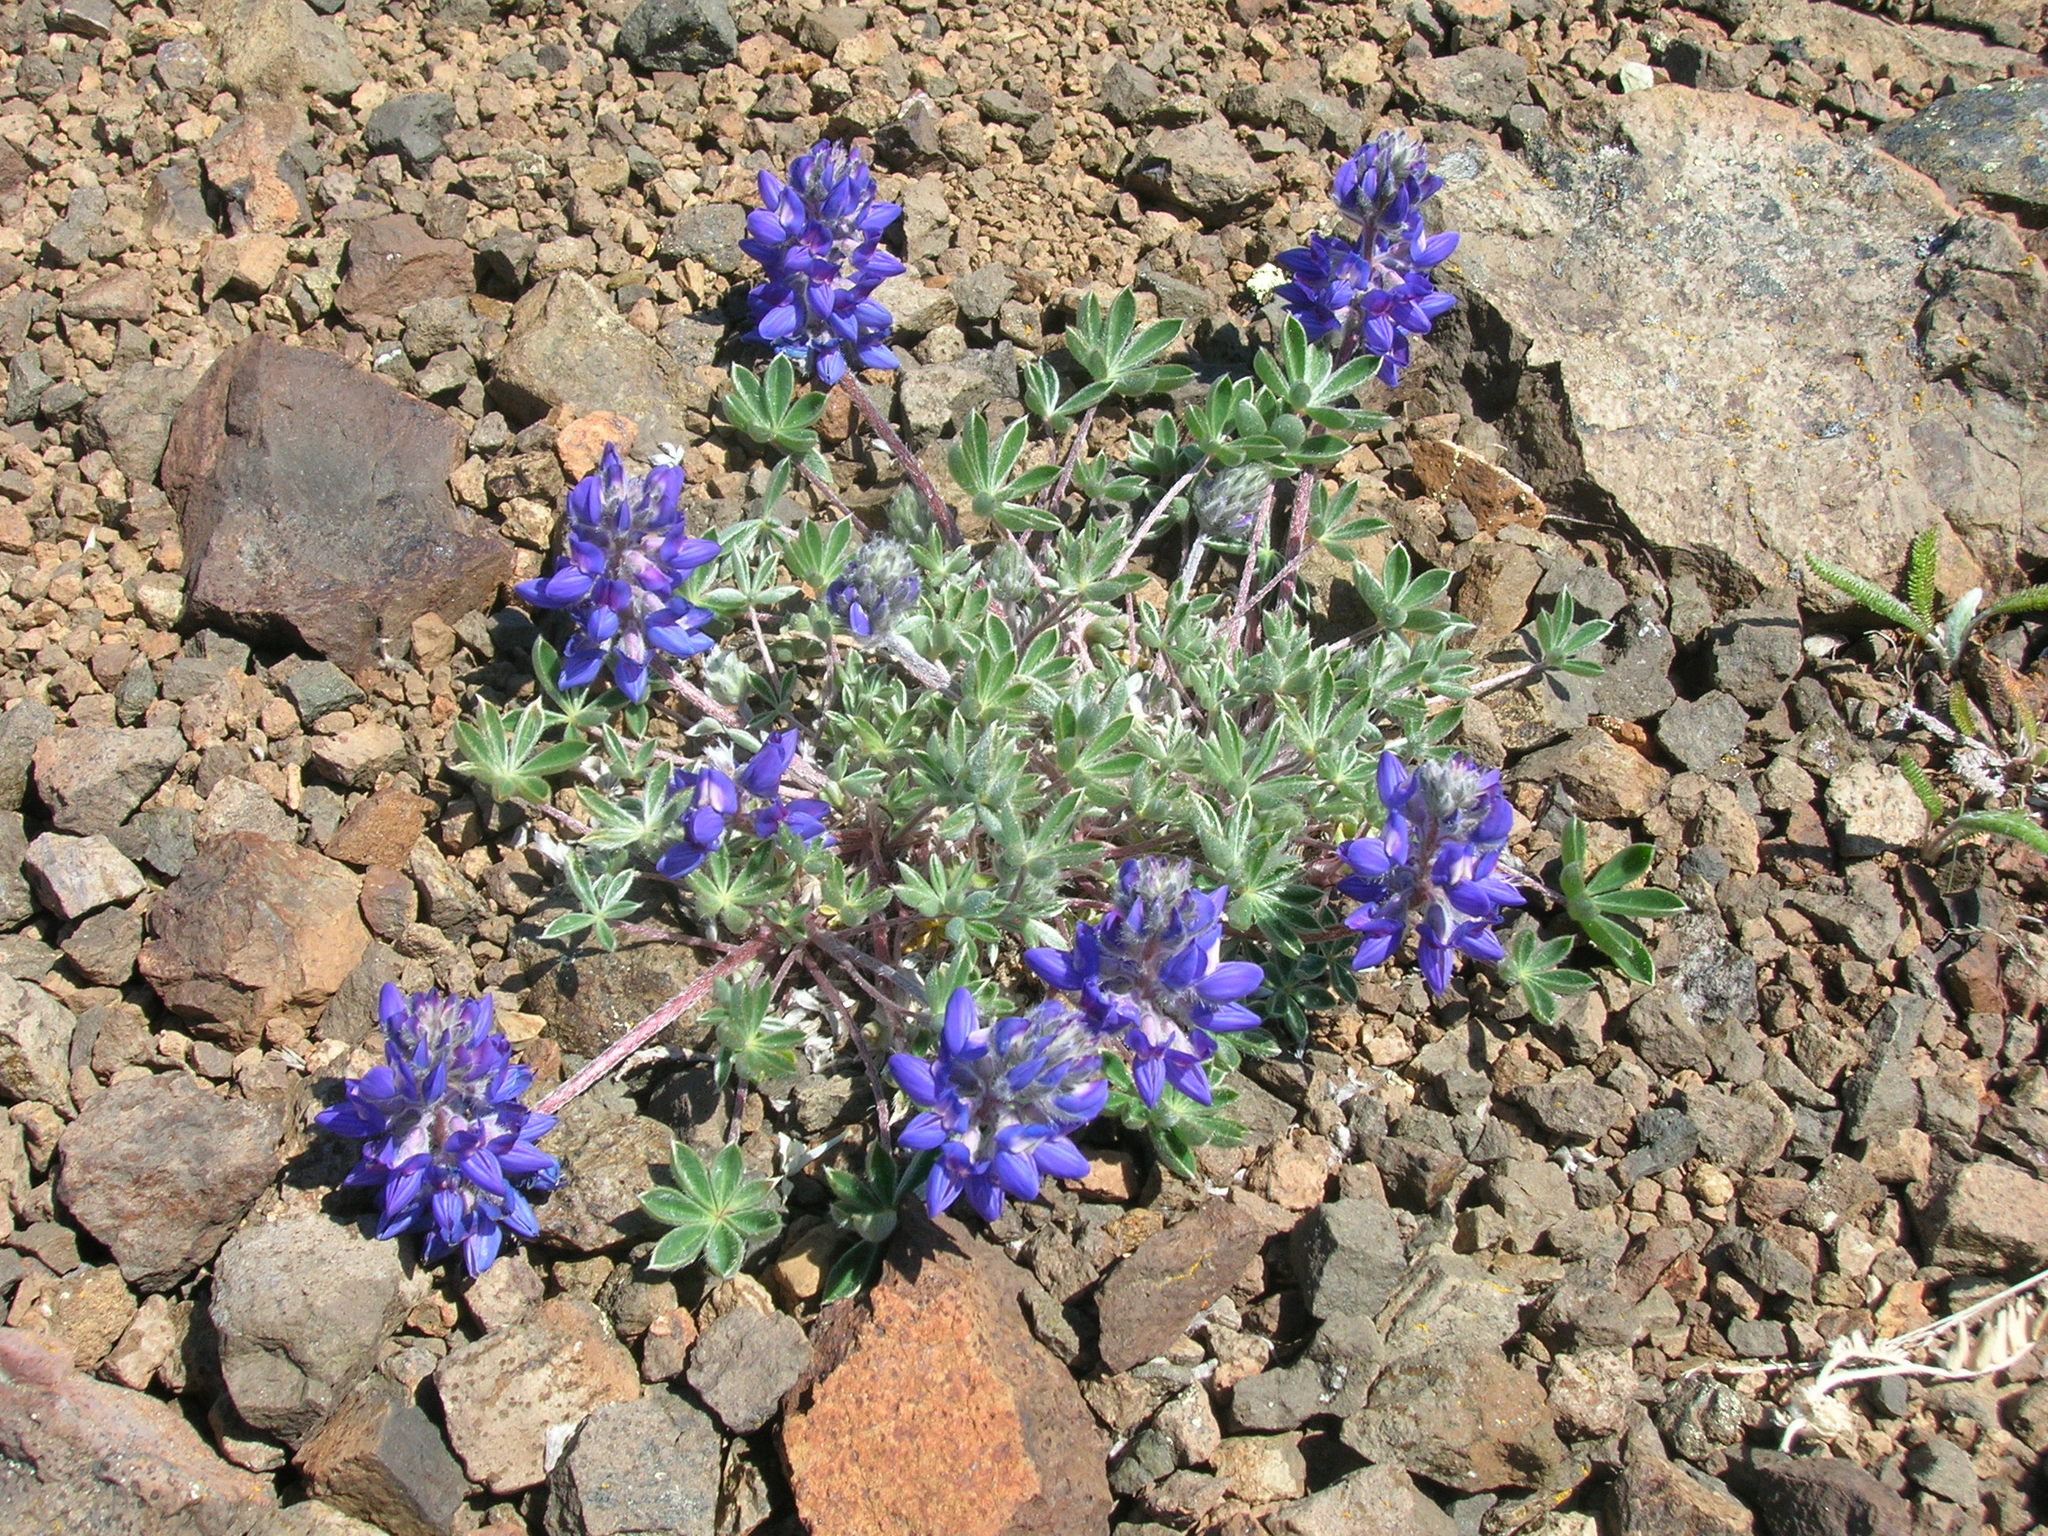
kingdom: Plantae
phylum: Tracheophyta
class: Magnoliopsida
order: Fabales
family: Fabaceae
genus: Lupinus
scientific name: Lupinus sellulus
